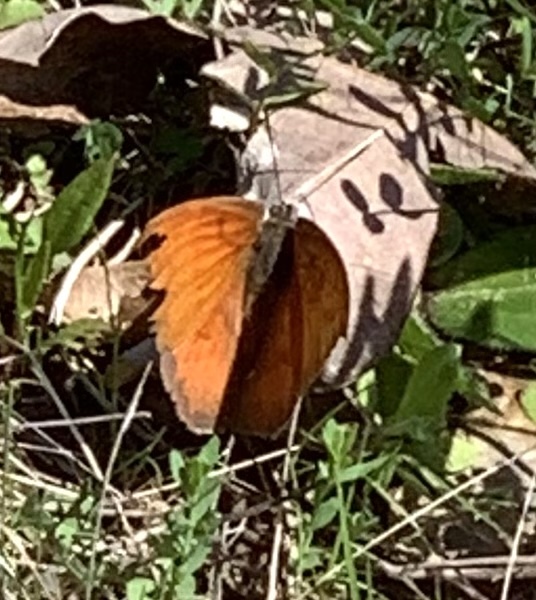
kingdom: Animalia
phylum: Arthropoda
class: Insecta
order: Lepidoptera
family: Nymphalidae
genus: Anaea
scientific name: Anaea andria
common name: Goatweed leafwing
